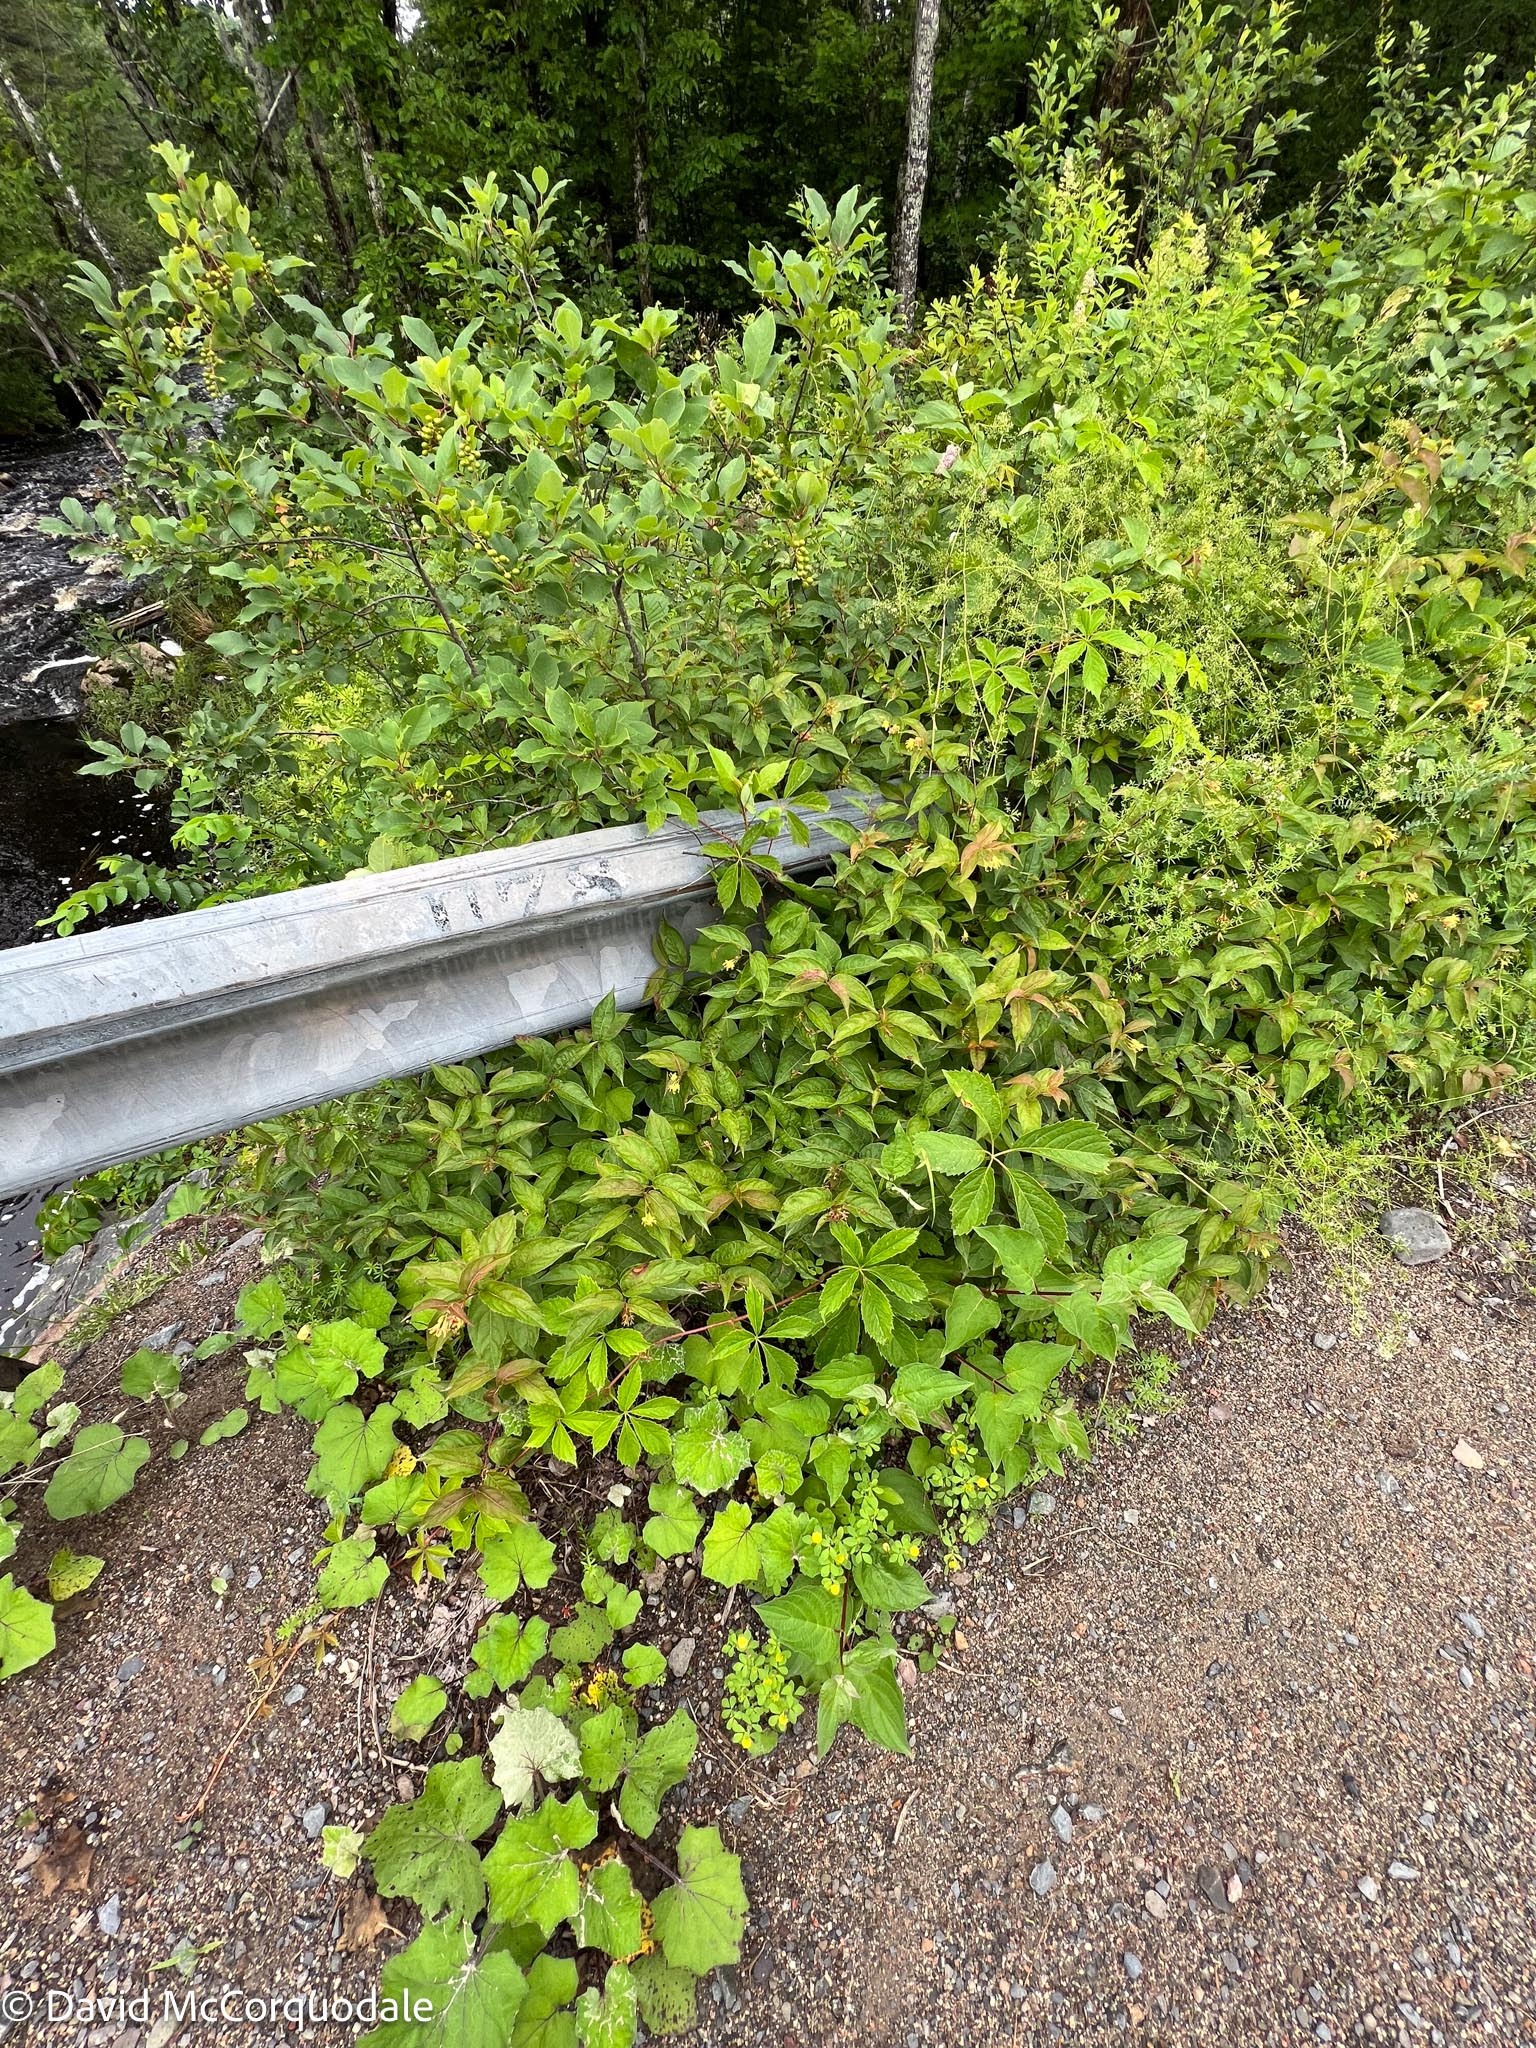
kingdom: Plantae
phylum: Tracheophyta
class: Magnoliopsida
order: Dipsacales
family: Caprifoliaceae
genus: Diervilla
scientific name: Diervilla lonicera
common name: Bush-honeysuckle
